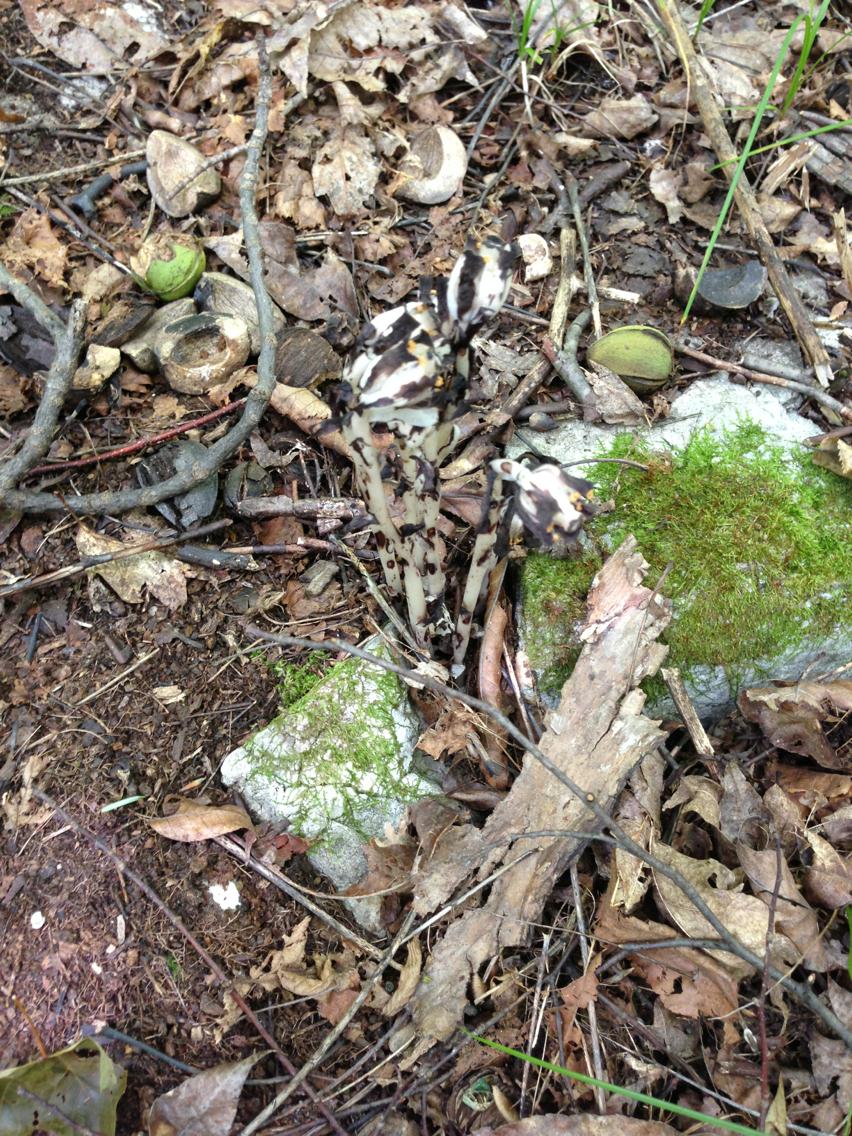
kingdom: Plantae
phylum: Tracheophyta
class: Magnoliopsida
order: Ericales
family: Ericaceae
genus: Monotropa
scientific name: Monotropa uniflora
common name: Convulsion root
